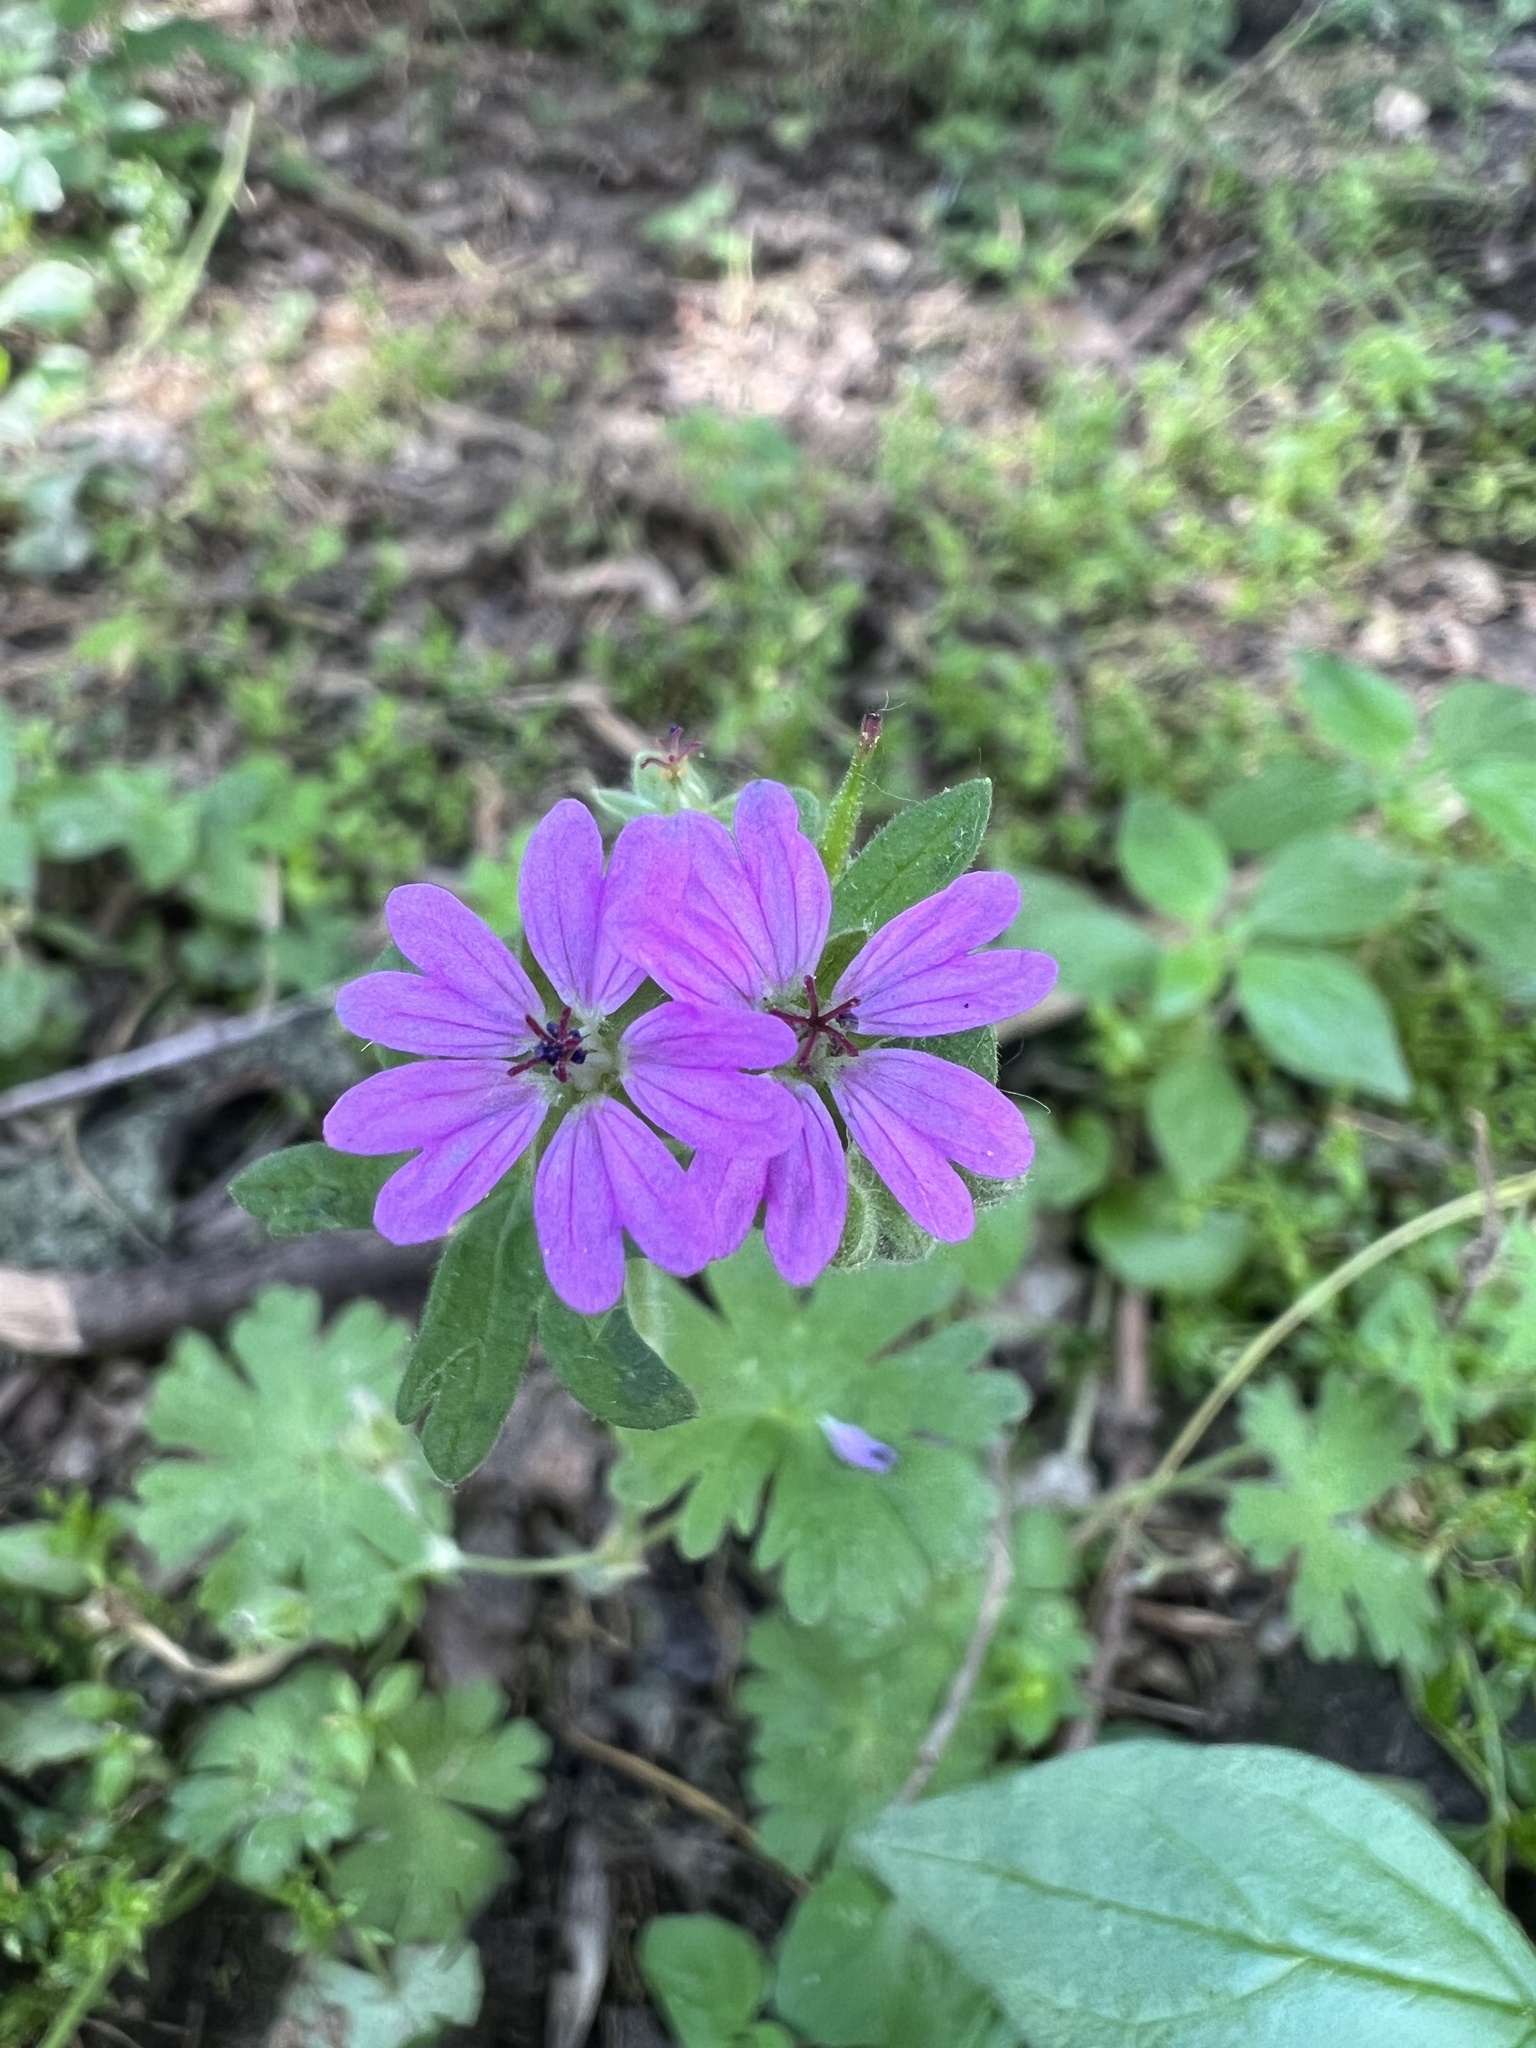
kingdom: Plantae
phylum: Tracheophyta
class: Magnoliopsida
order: Geraniales
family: Geraniaceae
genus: Geranium
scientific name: Geranium molle
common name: Dove's-foot crane's-bill
